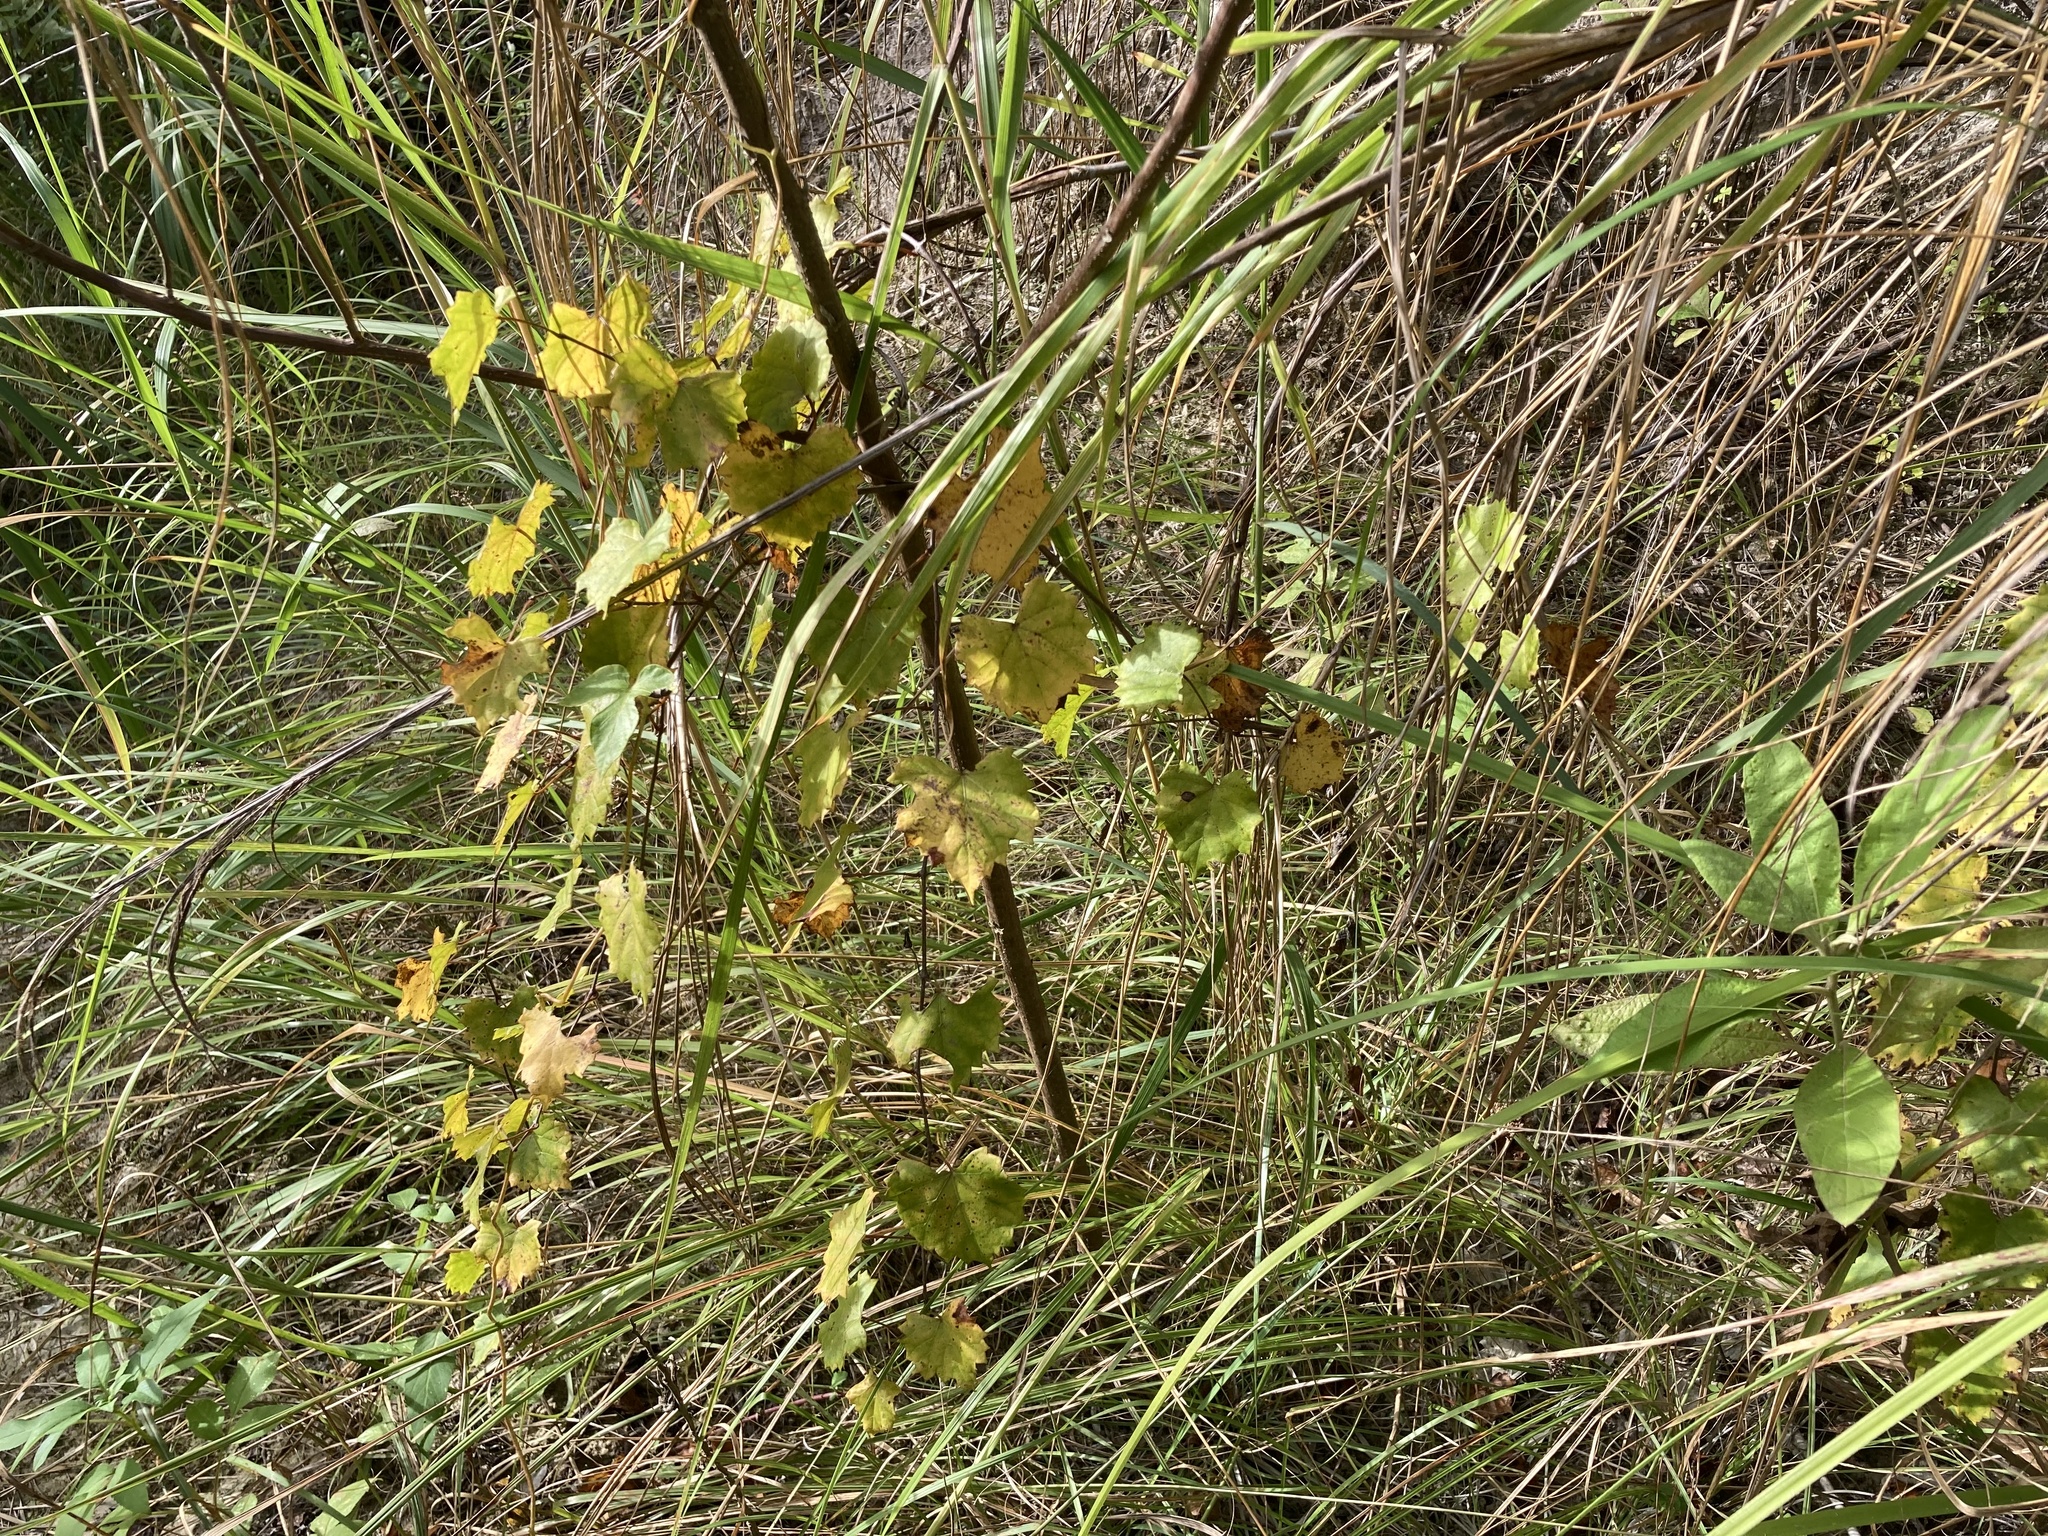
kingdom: Plantae
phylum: Tracheophyta
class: Magnoliopsida
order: Vitales
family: Vitaceae
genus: Vitis
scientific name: Vitis rotundifolia
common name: Muscadine grape
